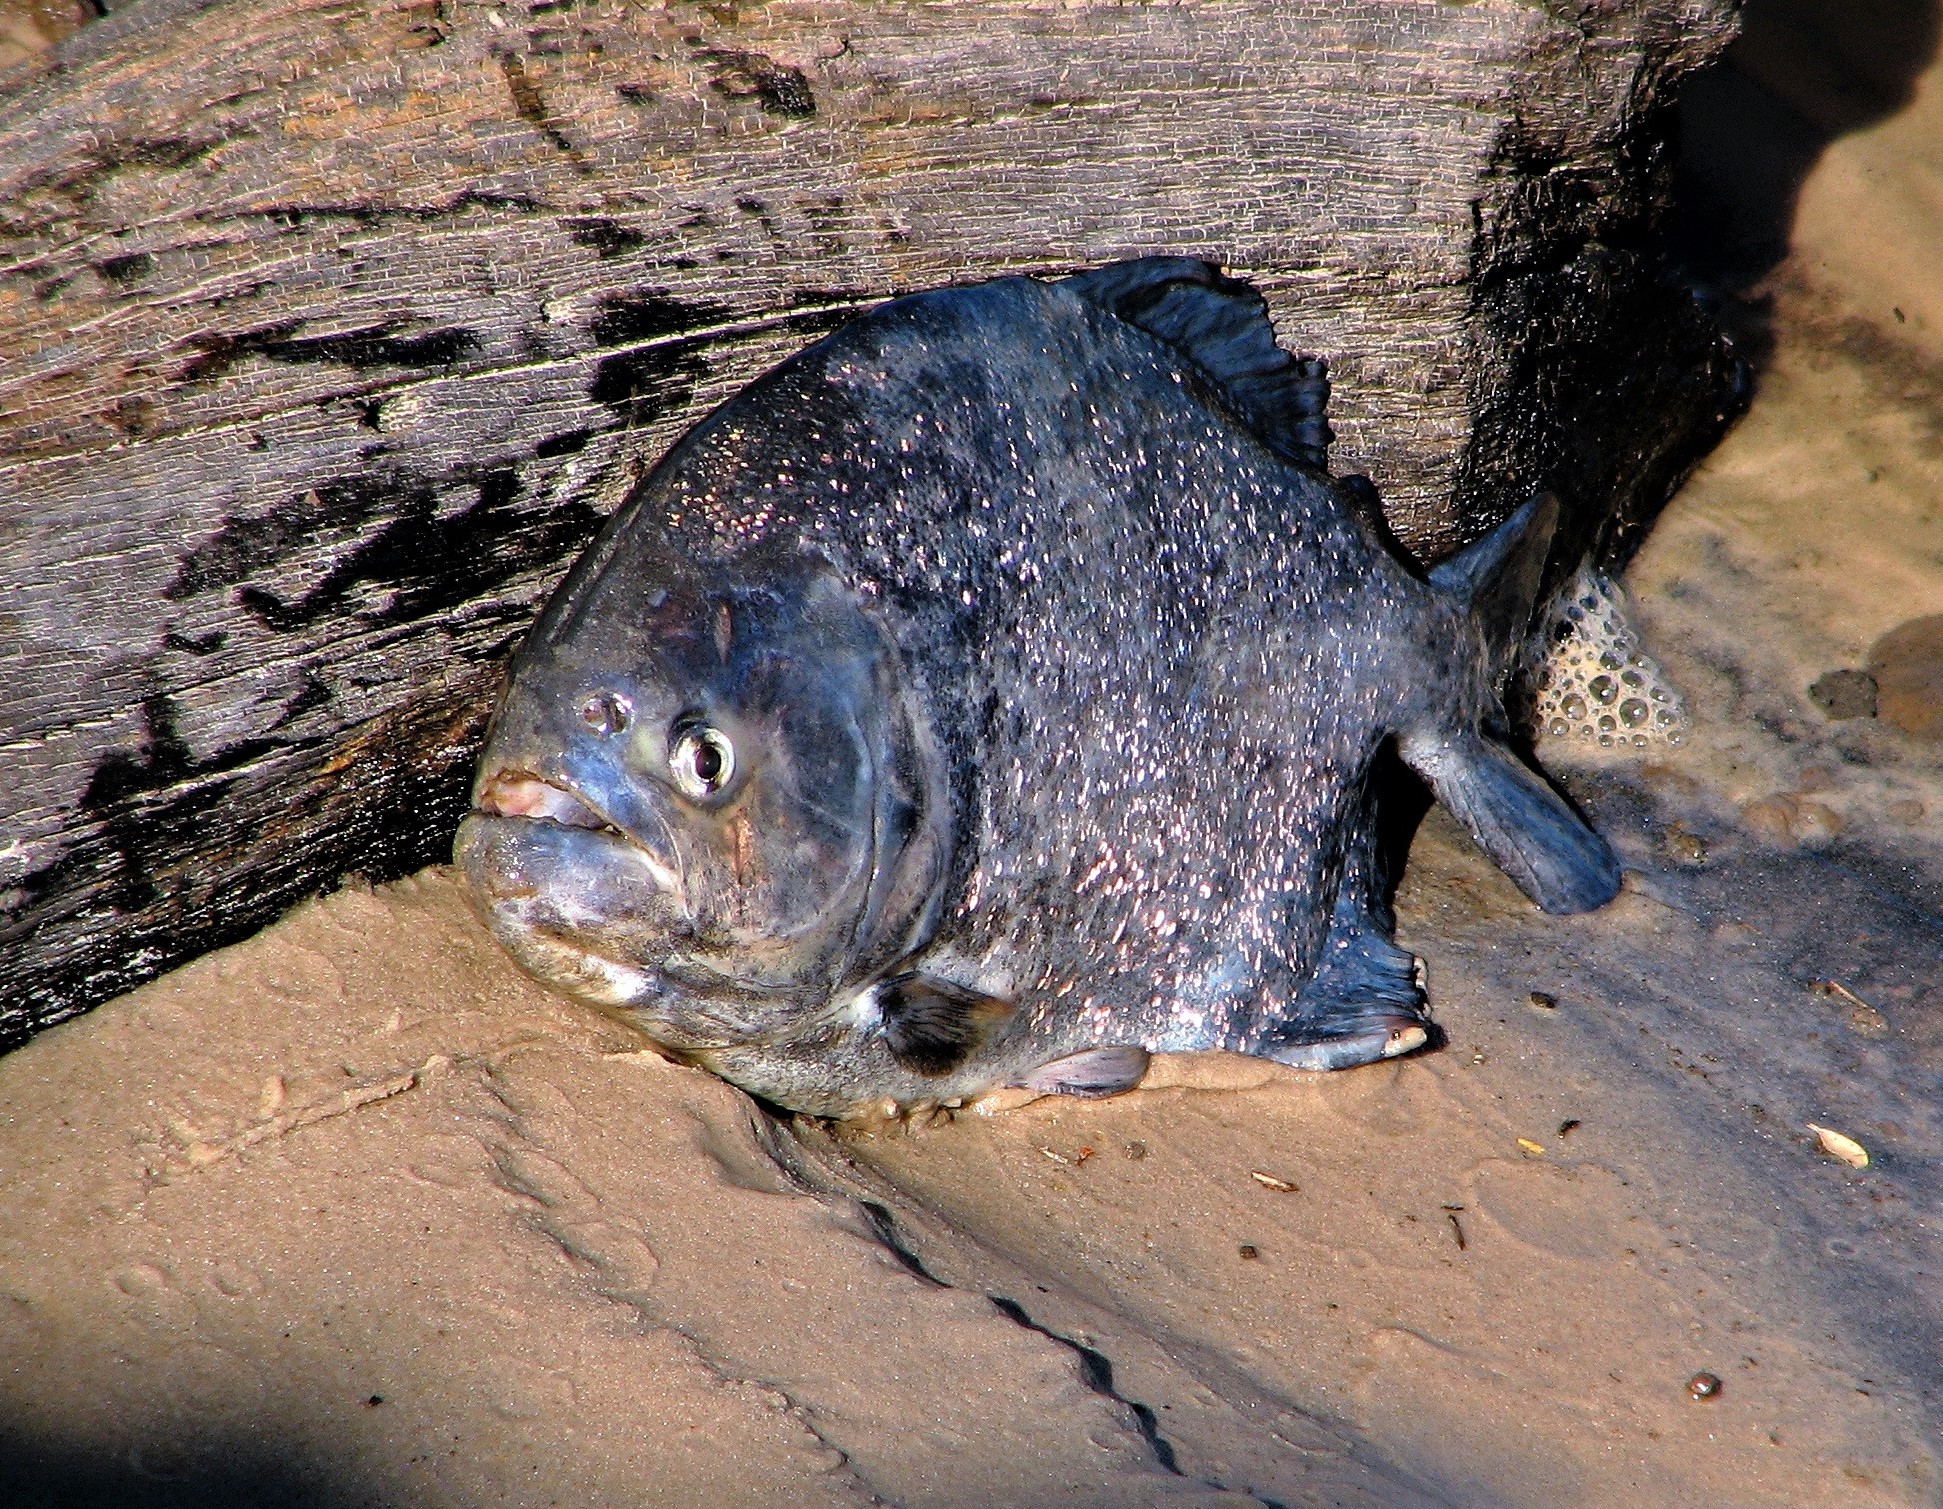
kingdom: Animalia
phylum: Chordata
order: Characiformes
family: Serrasalmidae
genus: Pygocentrus
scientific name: Pygocentrus nattereri
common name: Piranha
